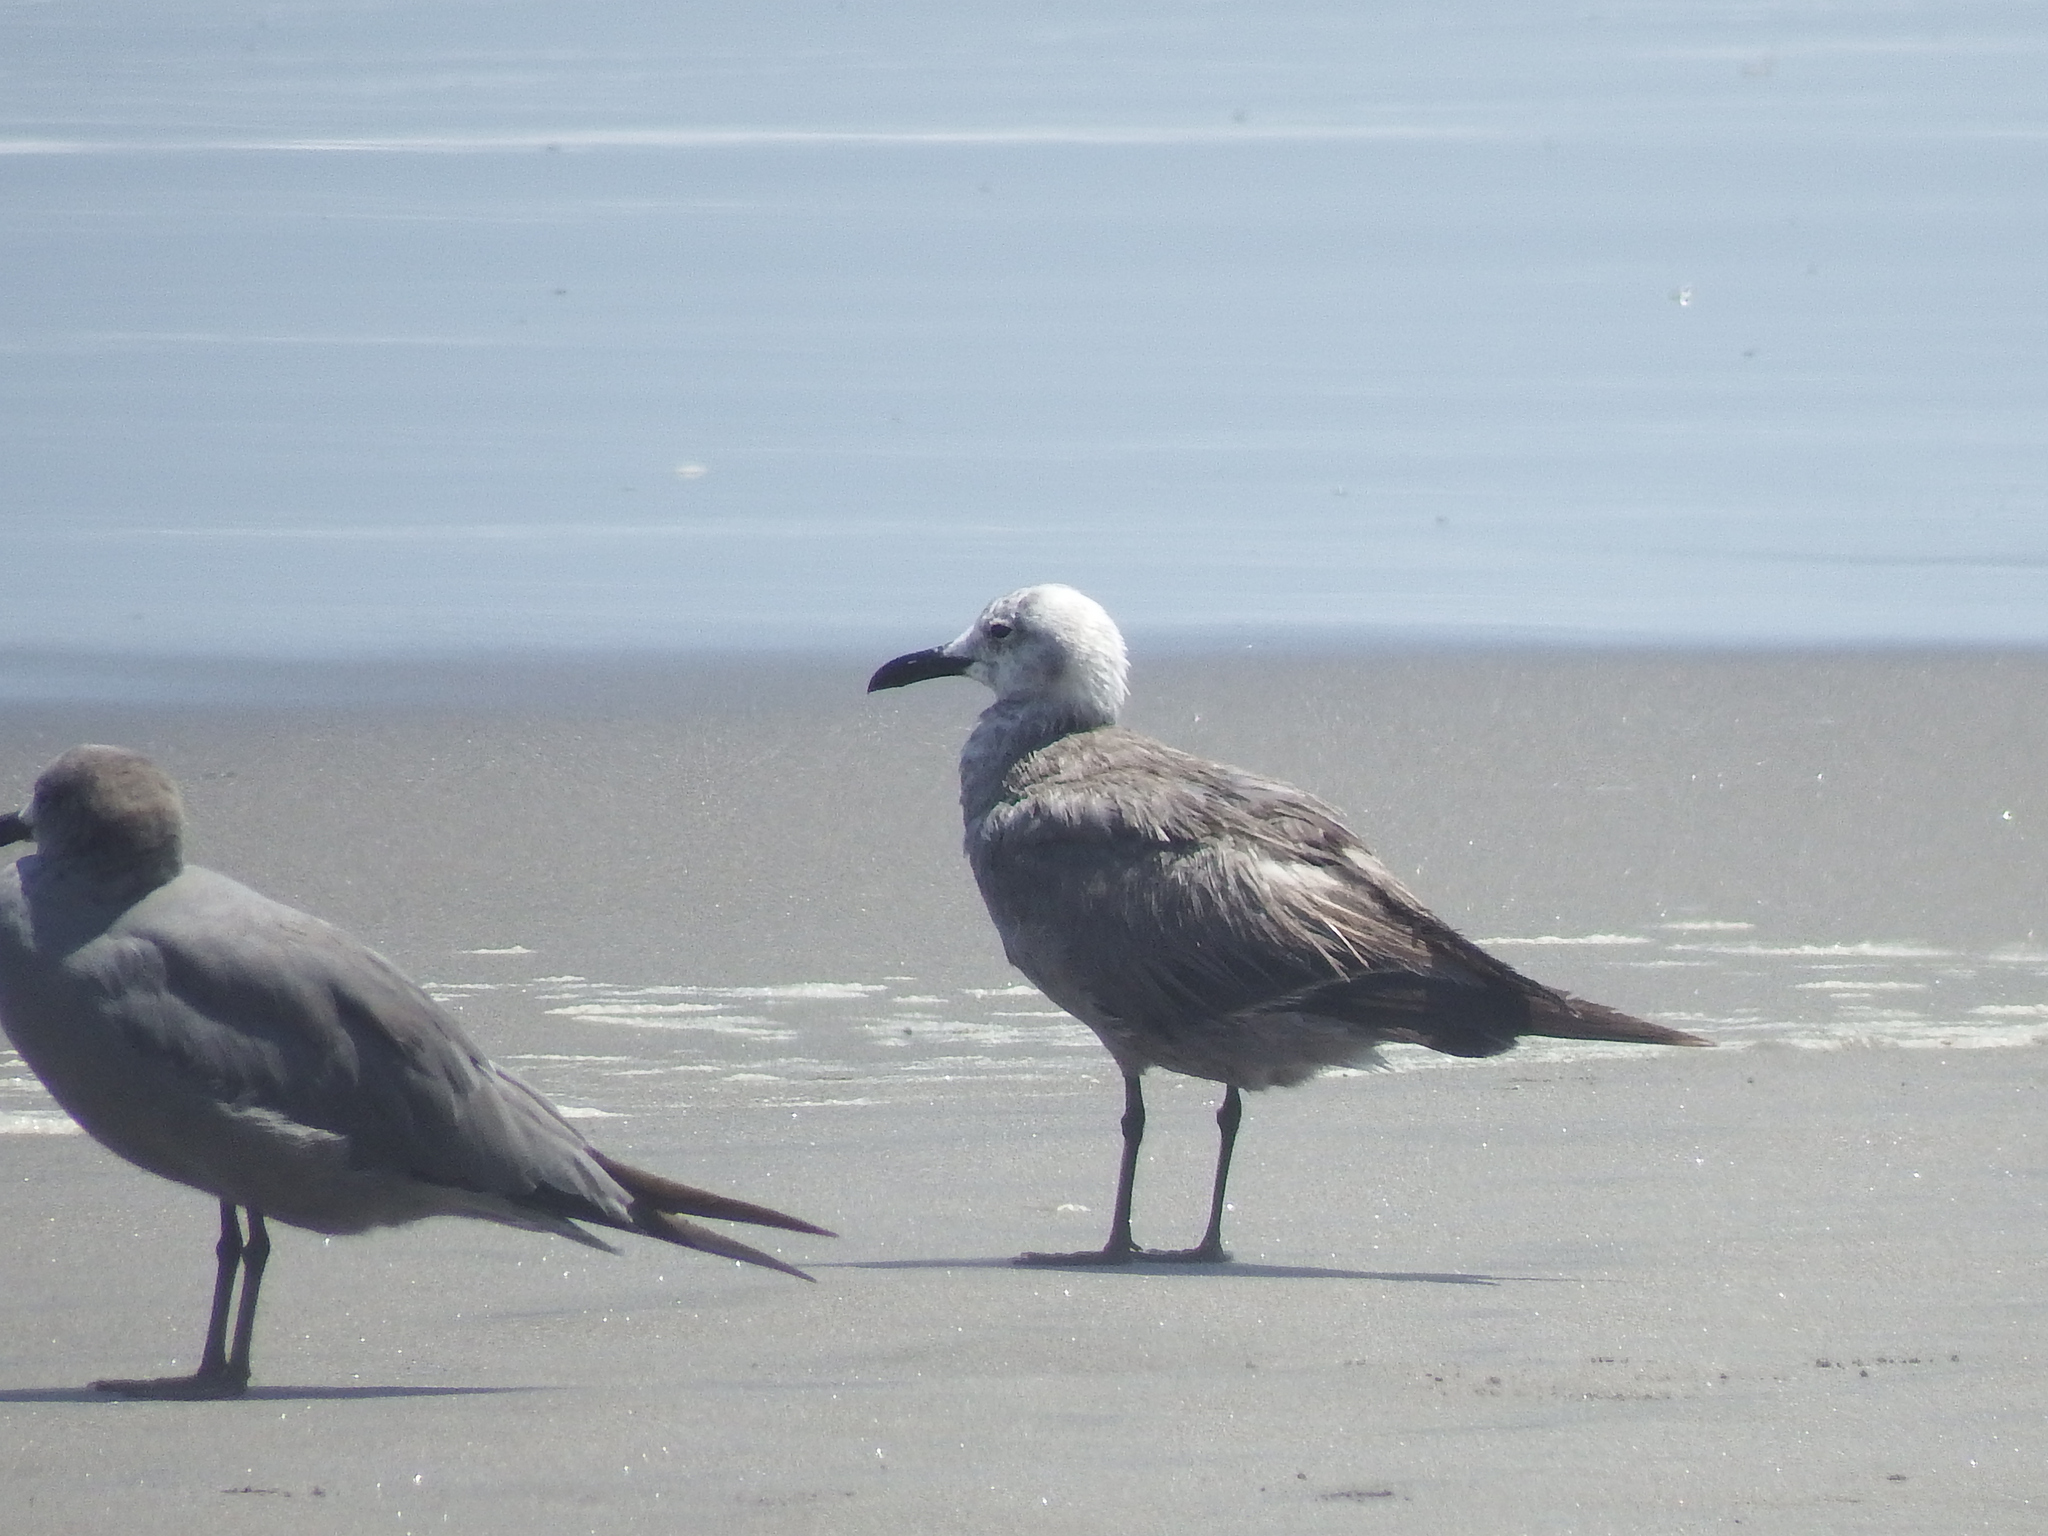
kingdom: Animalia
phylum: Chordata
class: Aves
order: Charadriiformes
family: Laridae
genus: Leucophaeus
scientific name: Leucophaeus modestus
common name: Gray gull
